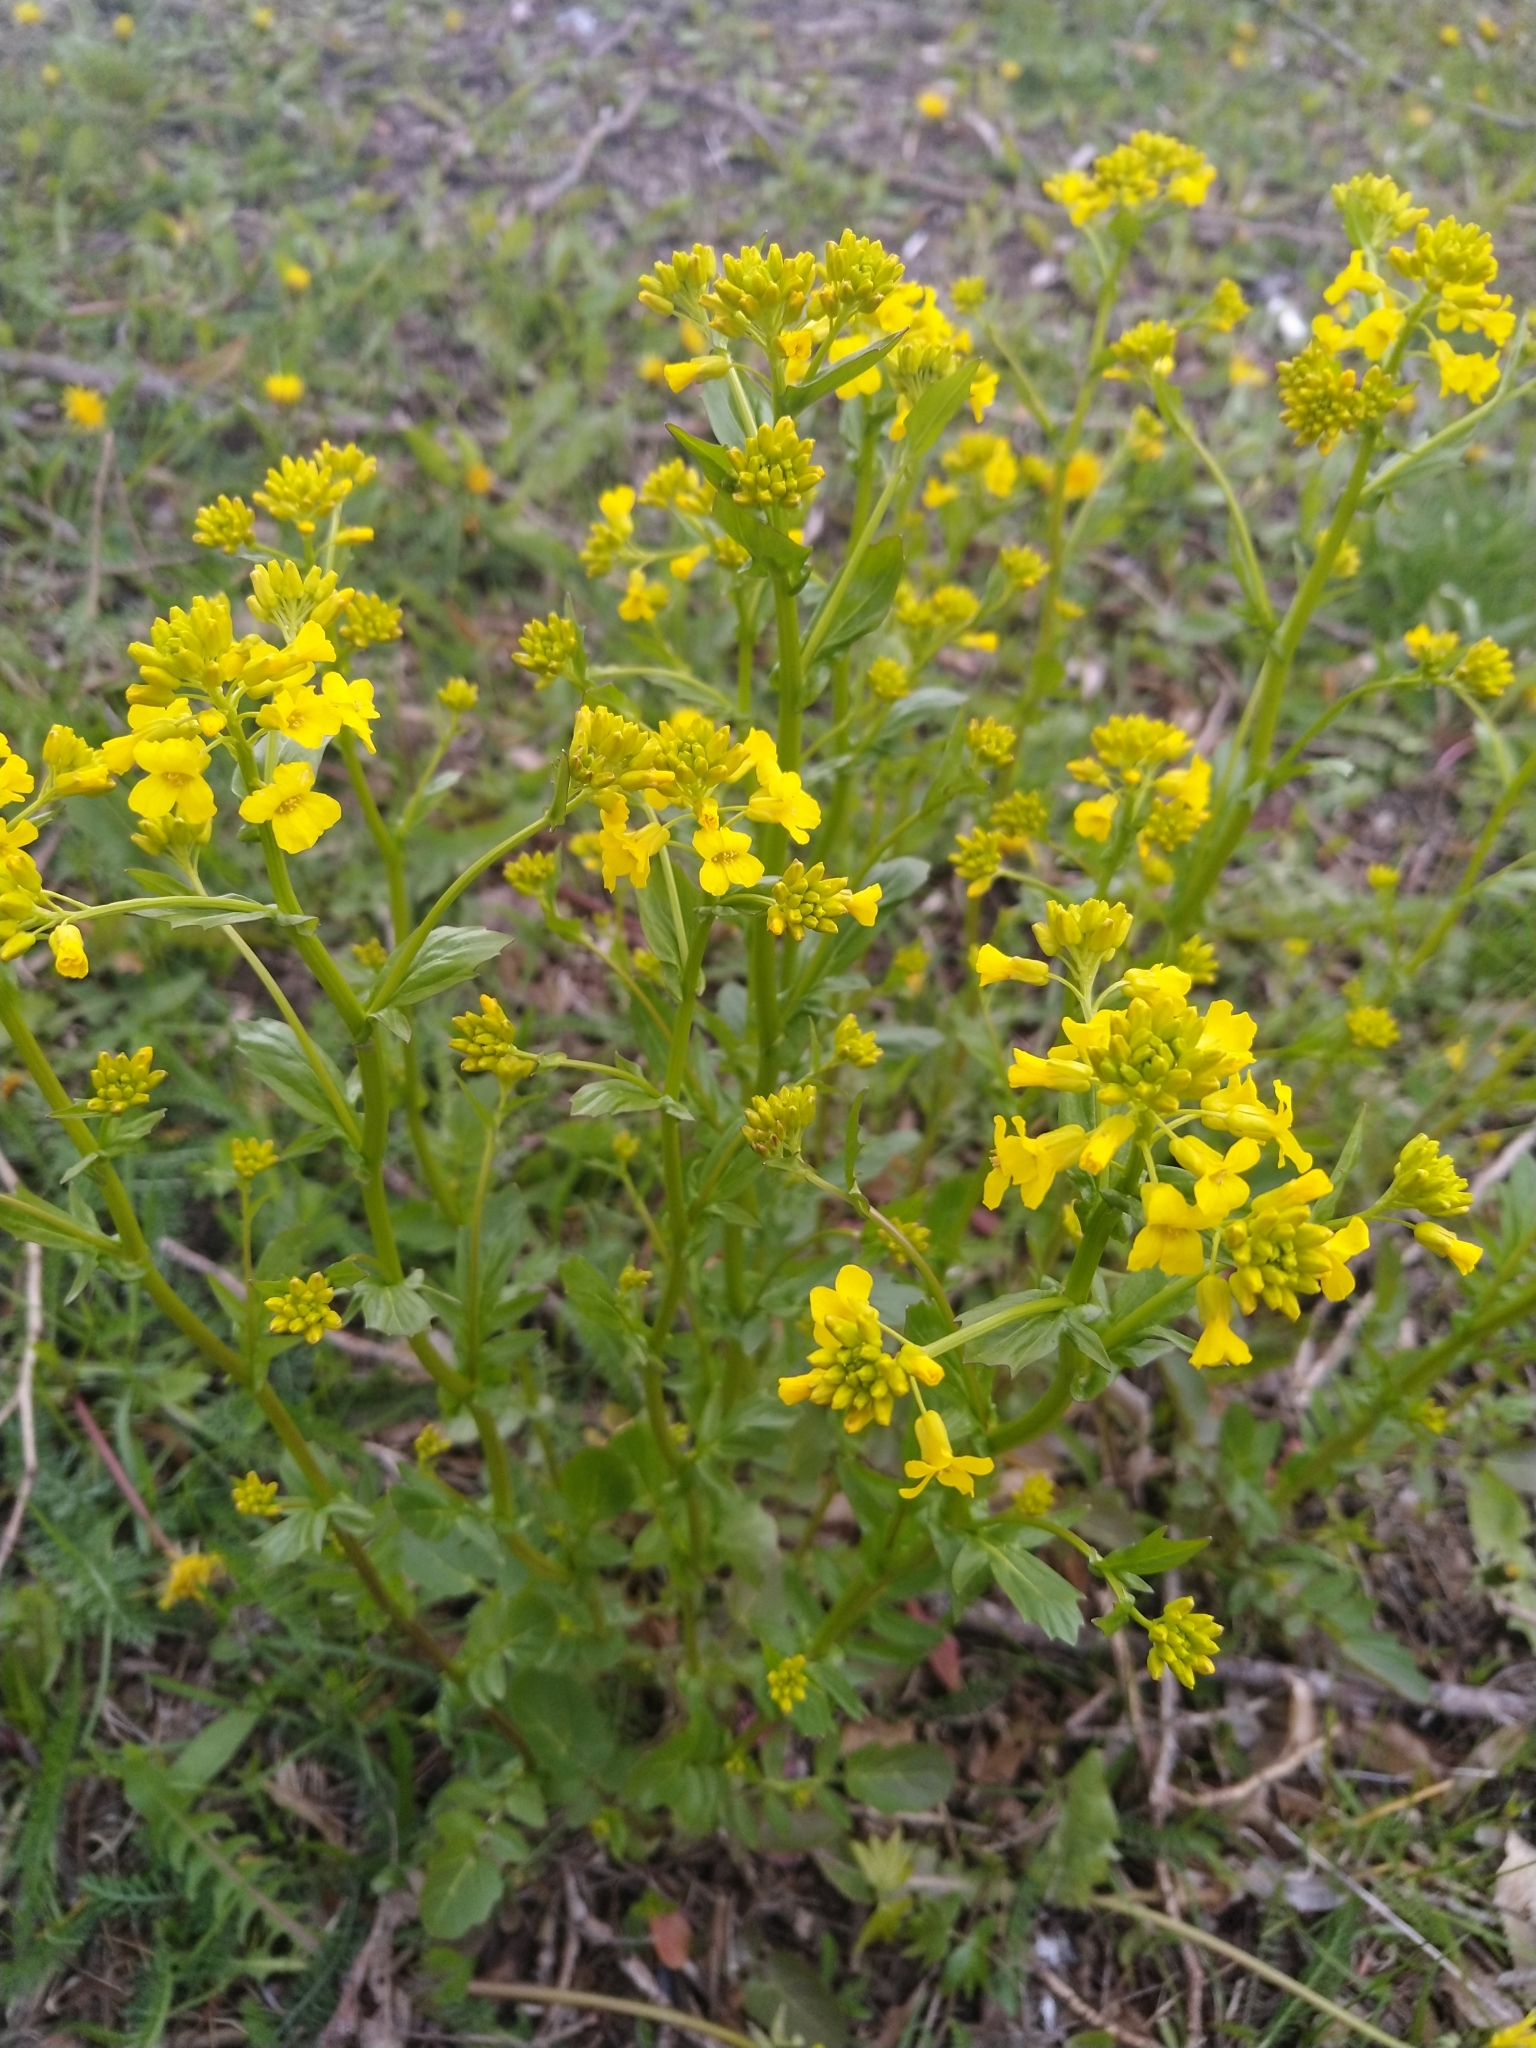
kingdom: Plantae
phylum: Tracheophyta
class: Magnoliopsida
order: Brassicales
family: Brassicaceae
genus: Barbarea
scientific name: Barbarea vulgaris
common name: Cressy-greens
